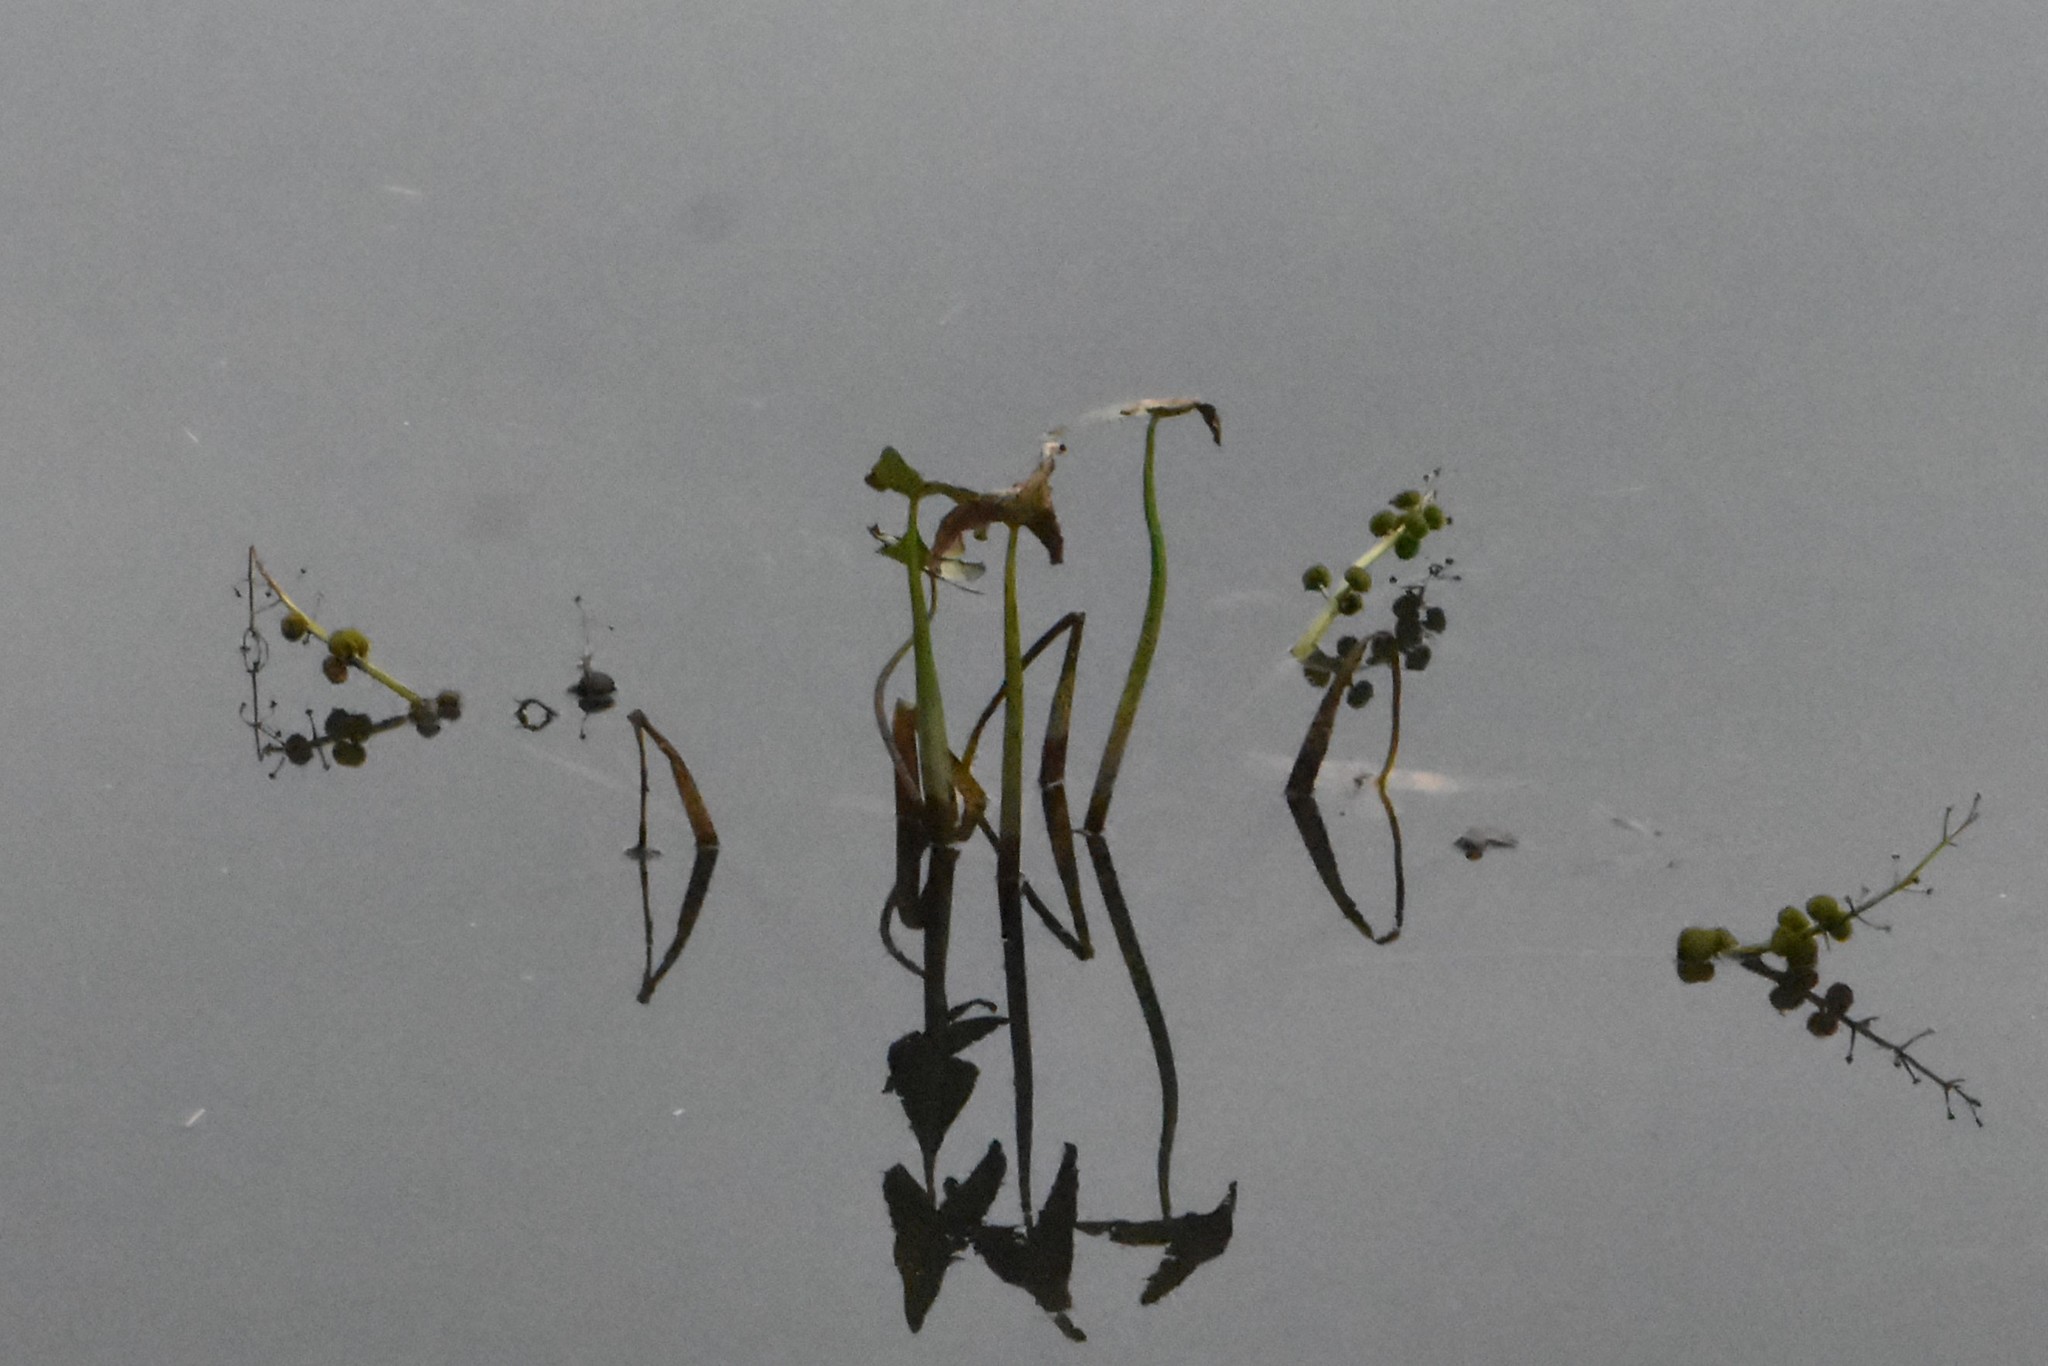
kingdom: Plantae
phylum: Tracheophyta
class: Liliopsida
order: Alismatales
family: Alismataceae
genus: Sagittaria
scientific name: Sagittaria sagittifolia
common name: Arrowhead
